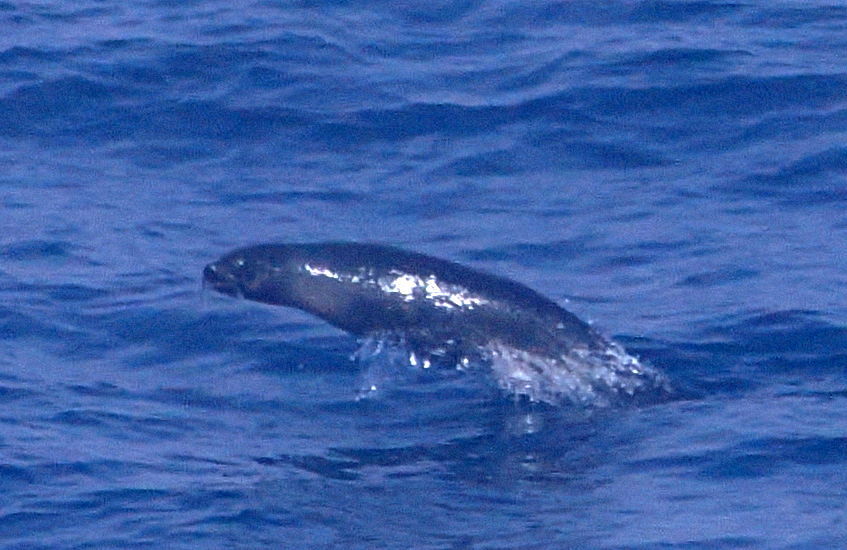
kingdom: Animalia
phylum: Chordata
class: Mammalia
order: Carnivora
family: Otariidae
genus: Arctocephalus
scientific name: Arctocephalus gazella
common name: Antarctic fur seal
